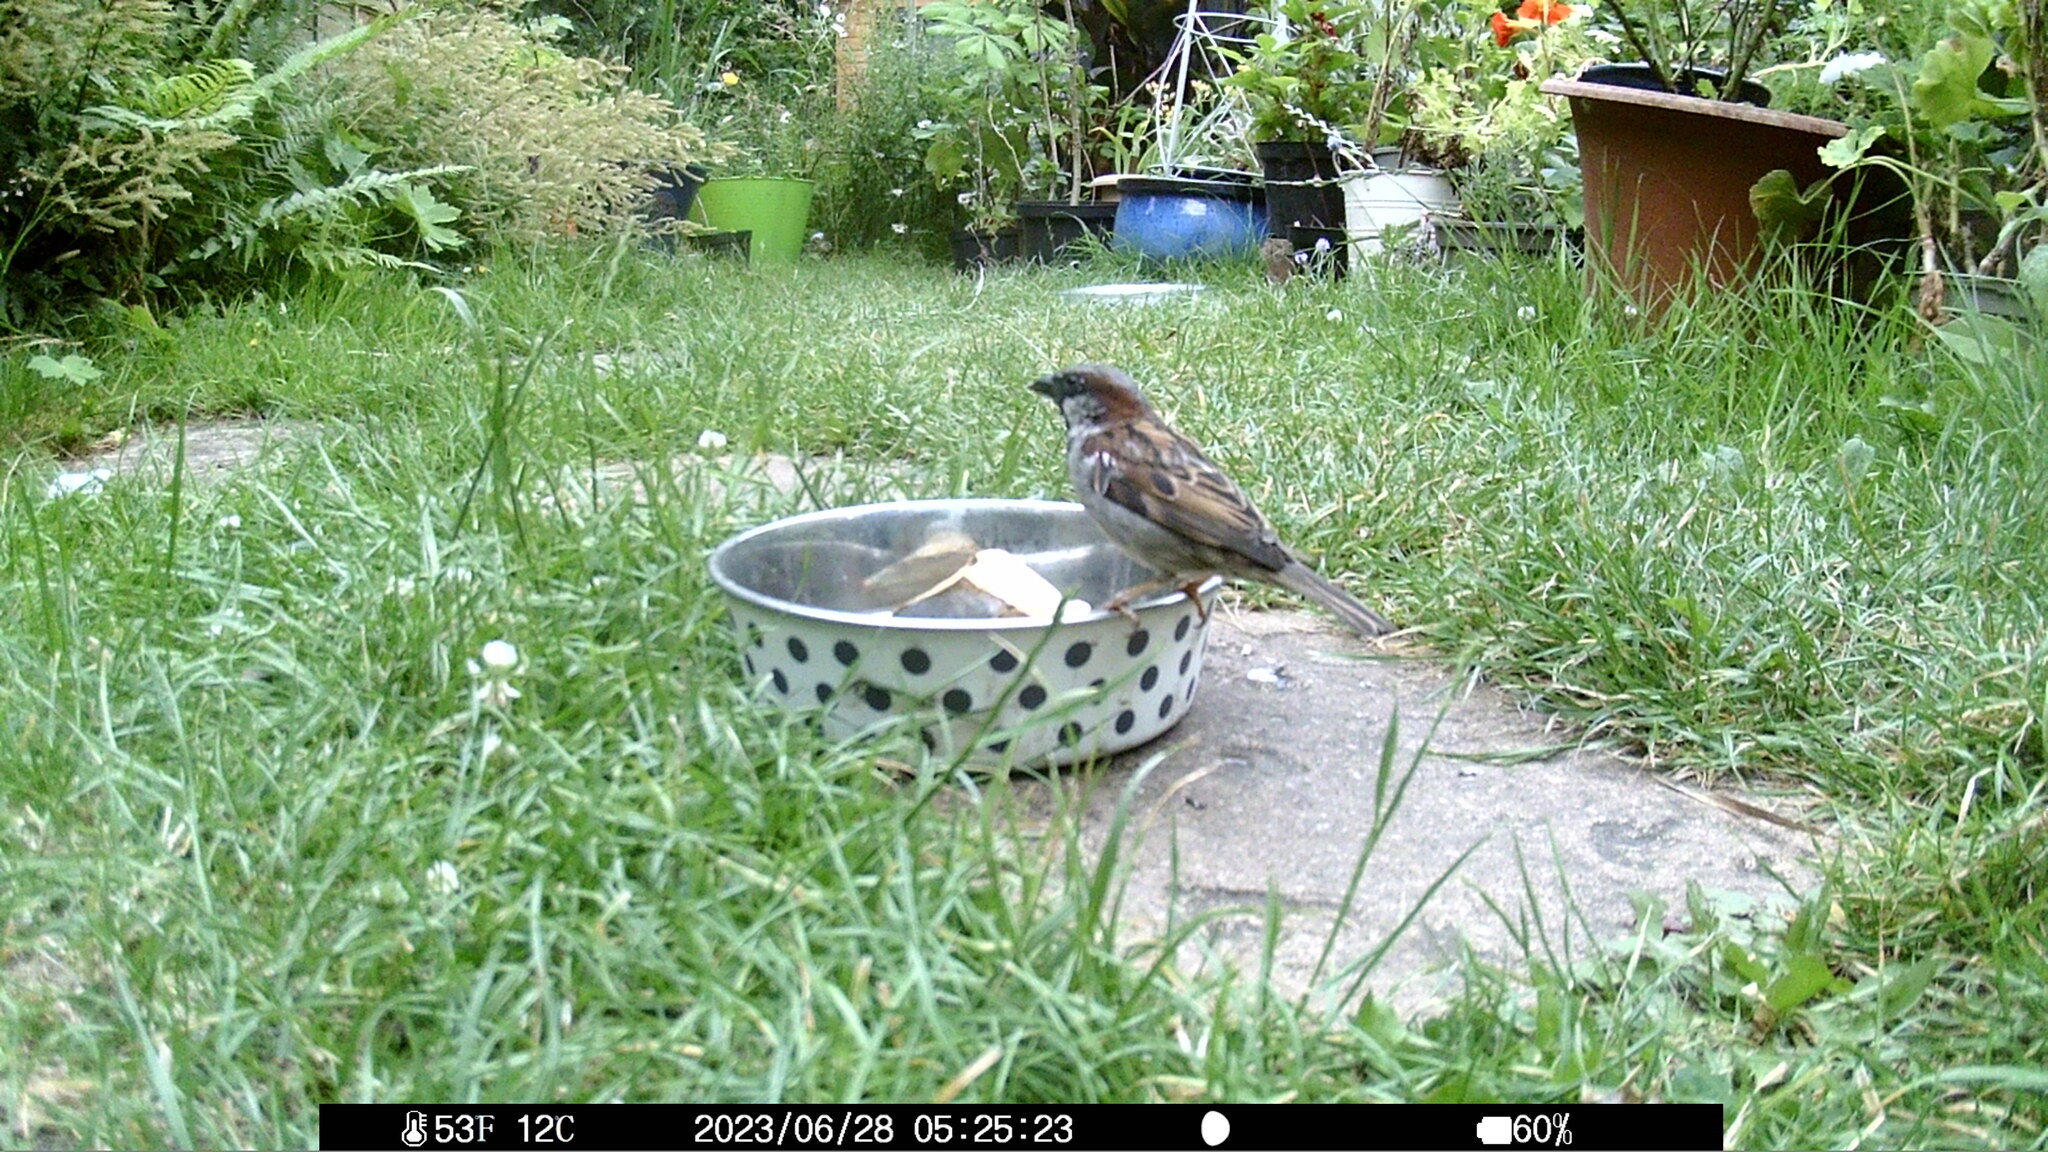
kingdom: Animalia
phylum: Chordata
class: Aves
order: Passeriformes
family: Passeridae
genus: Passer
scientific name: Passer domesticus
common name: House sparrow
